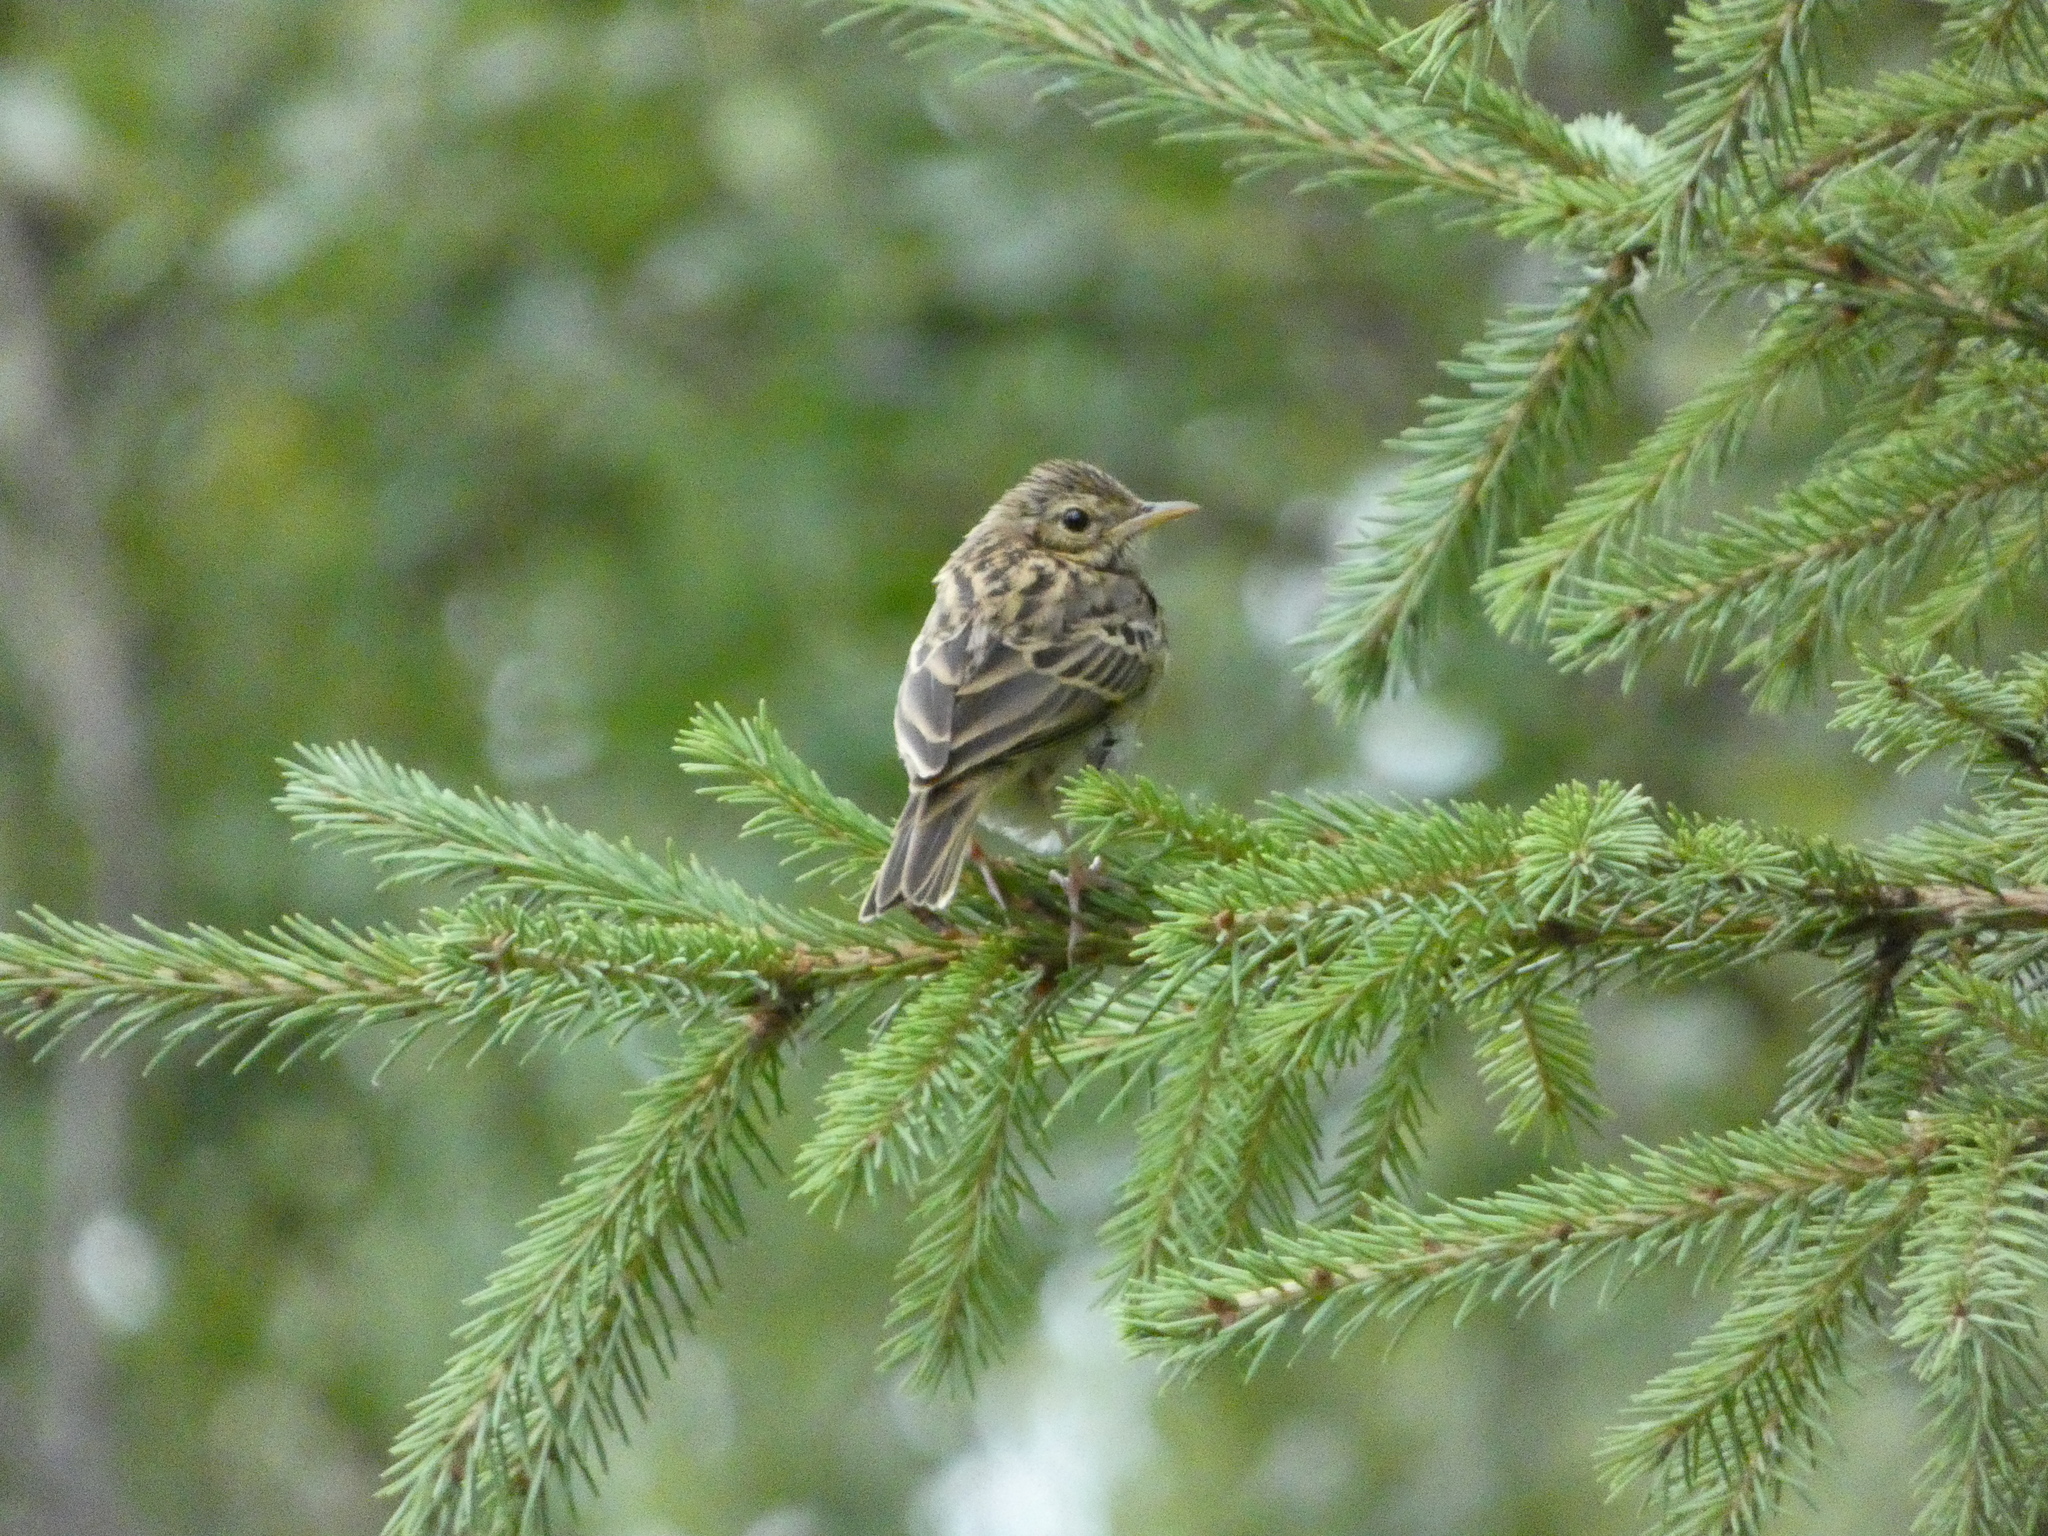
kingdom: Animalia
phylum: Chordata
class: Aves
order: Passeriformes
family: Motacillidae
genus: Anthus
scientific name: Anthus trivialis
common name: Tree pipit
